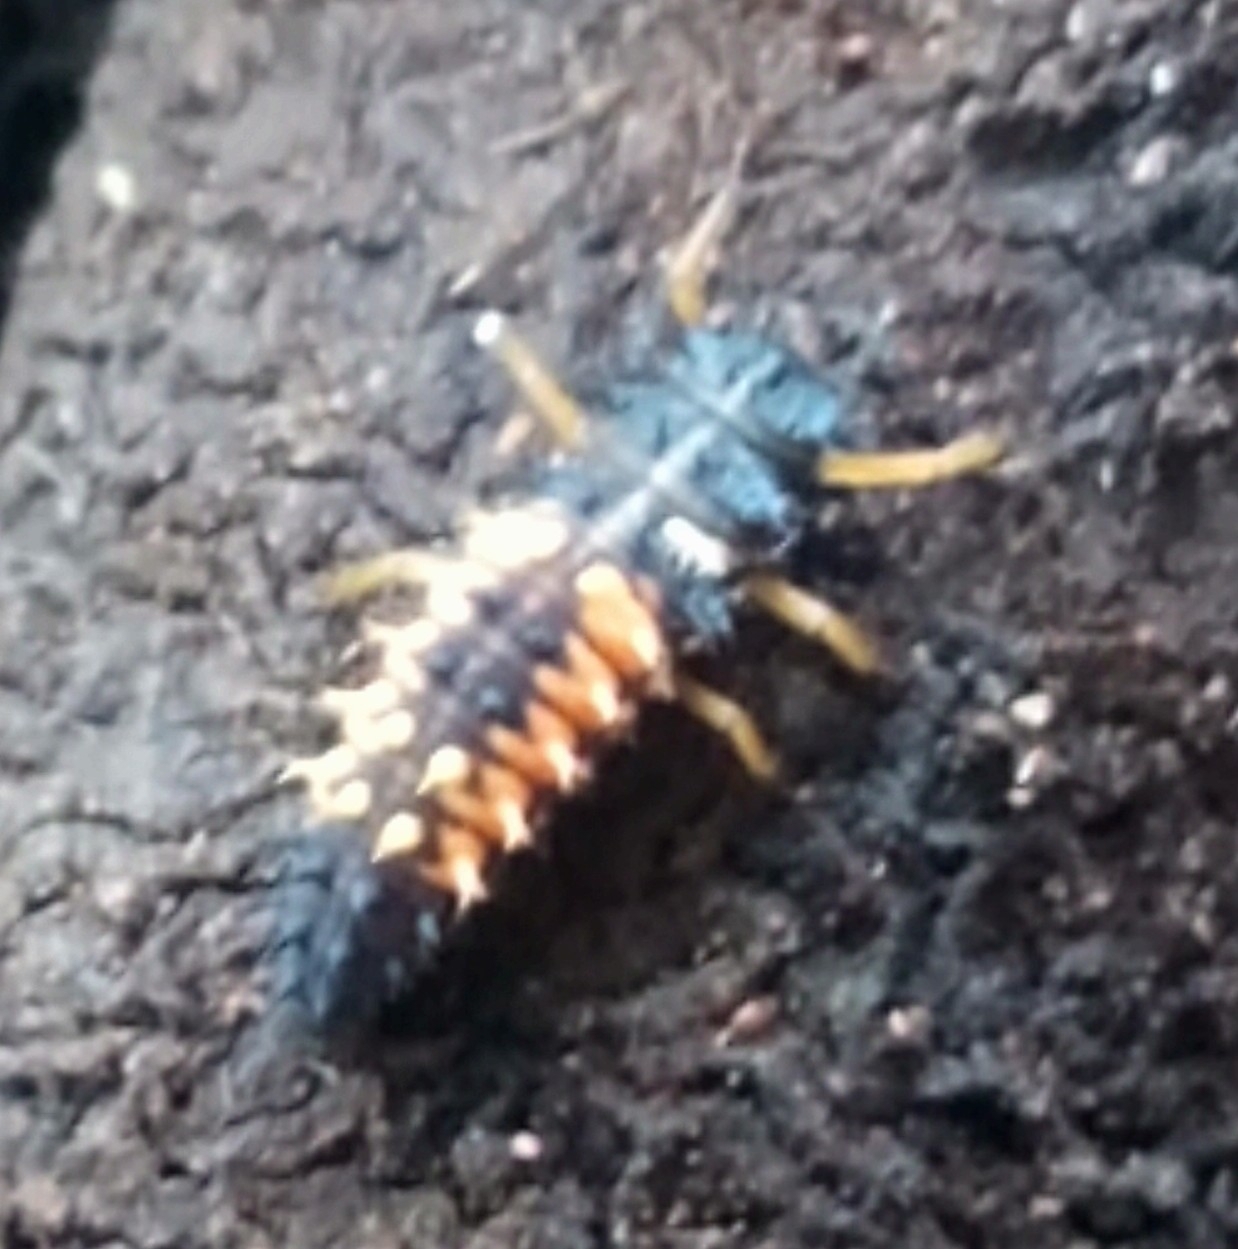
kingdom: Animalia
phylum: Arthropoda
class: Insecta
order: Coleoptera
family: Coccinellidae
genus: Harmonia
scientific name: Harmonia axyridis
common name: Harlequin ladybird
